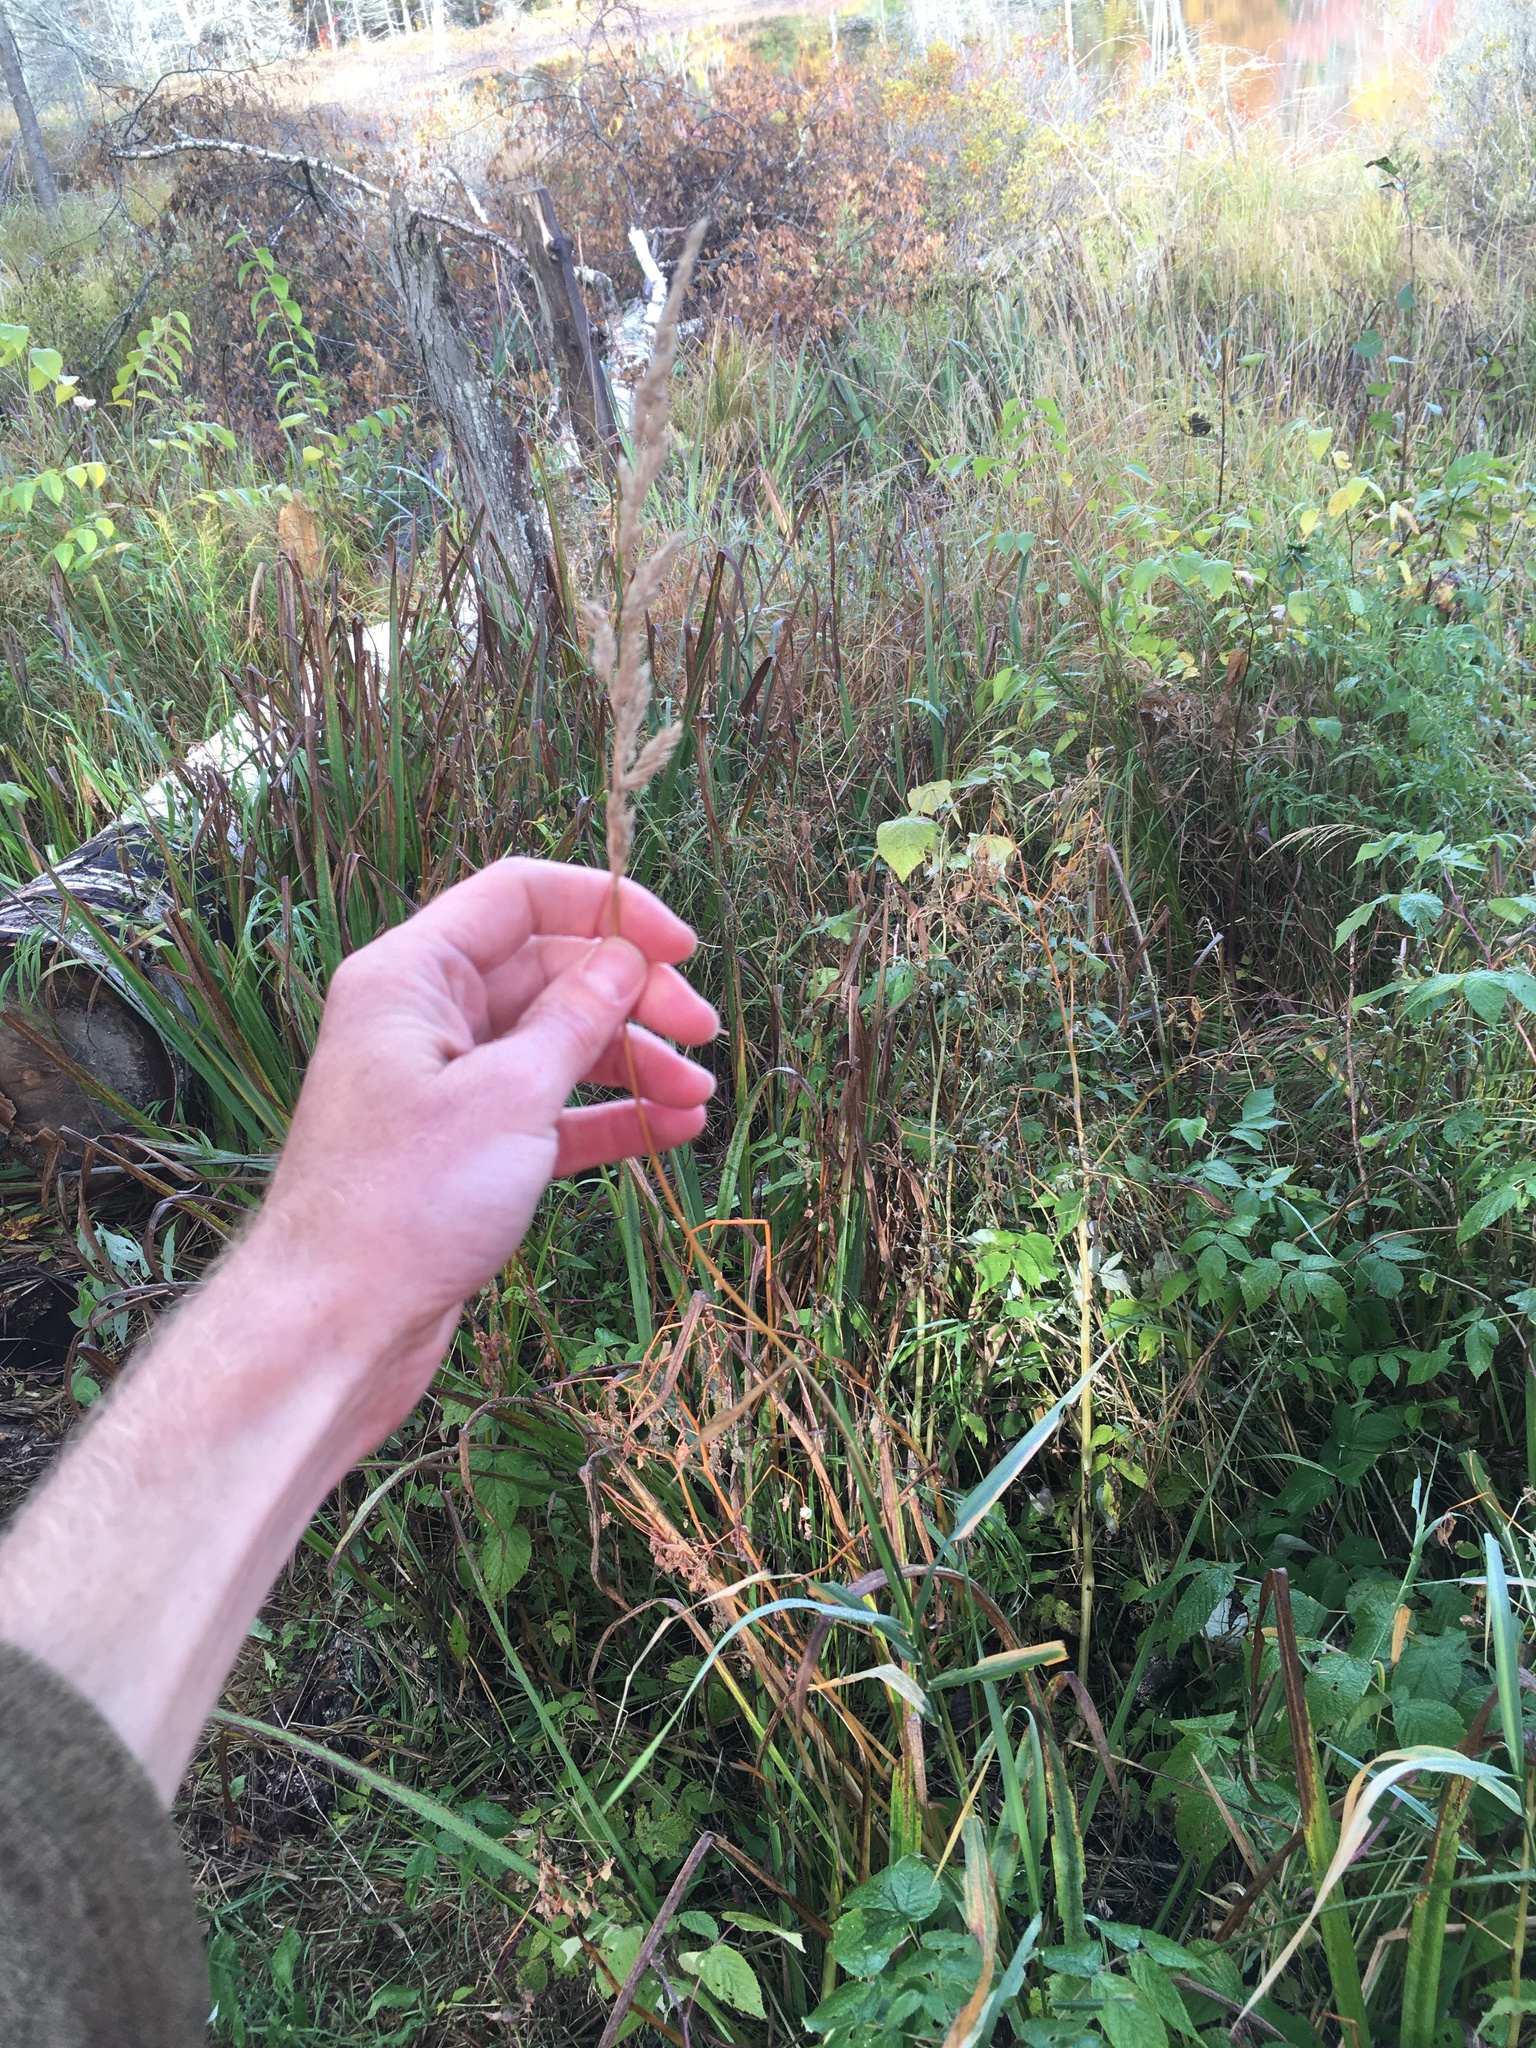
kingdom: Plantae
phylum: Tracheophyta
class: Liliopsida
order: Poales
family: Poaceae
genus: Phalaris
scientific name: Phalaris arundinacea
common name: Reed canary-grass
